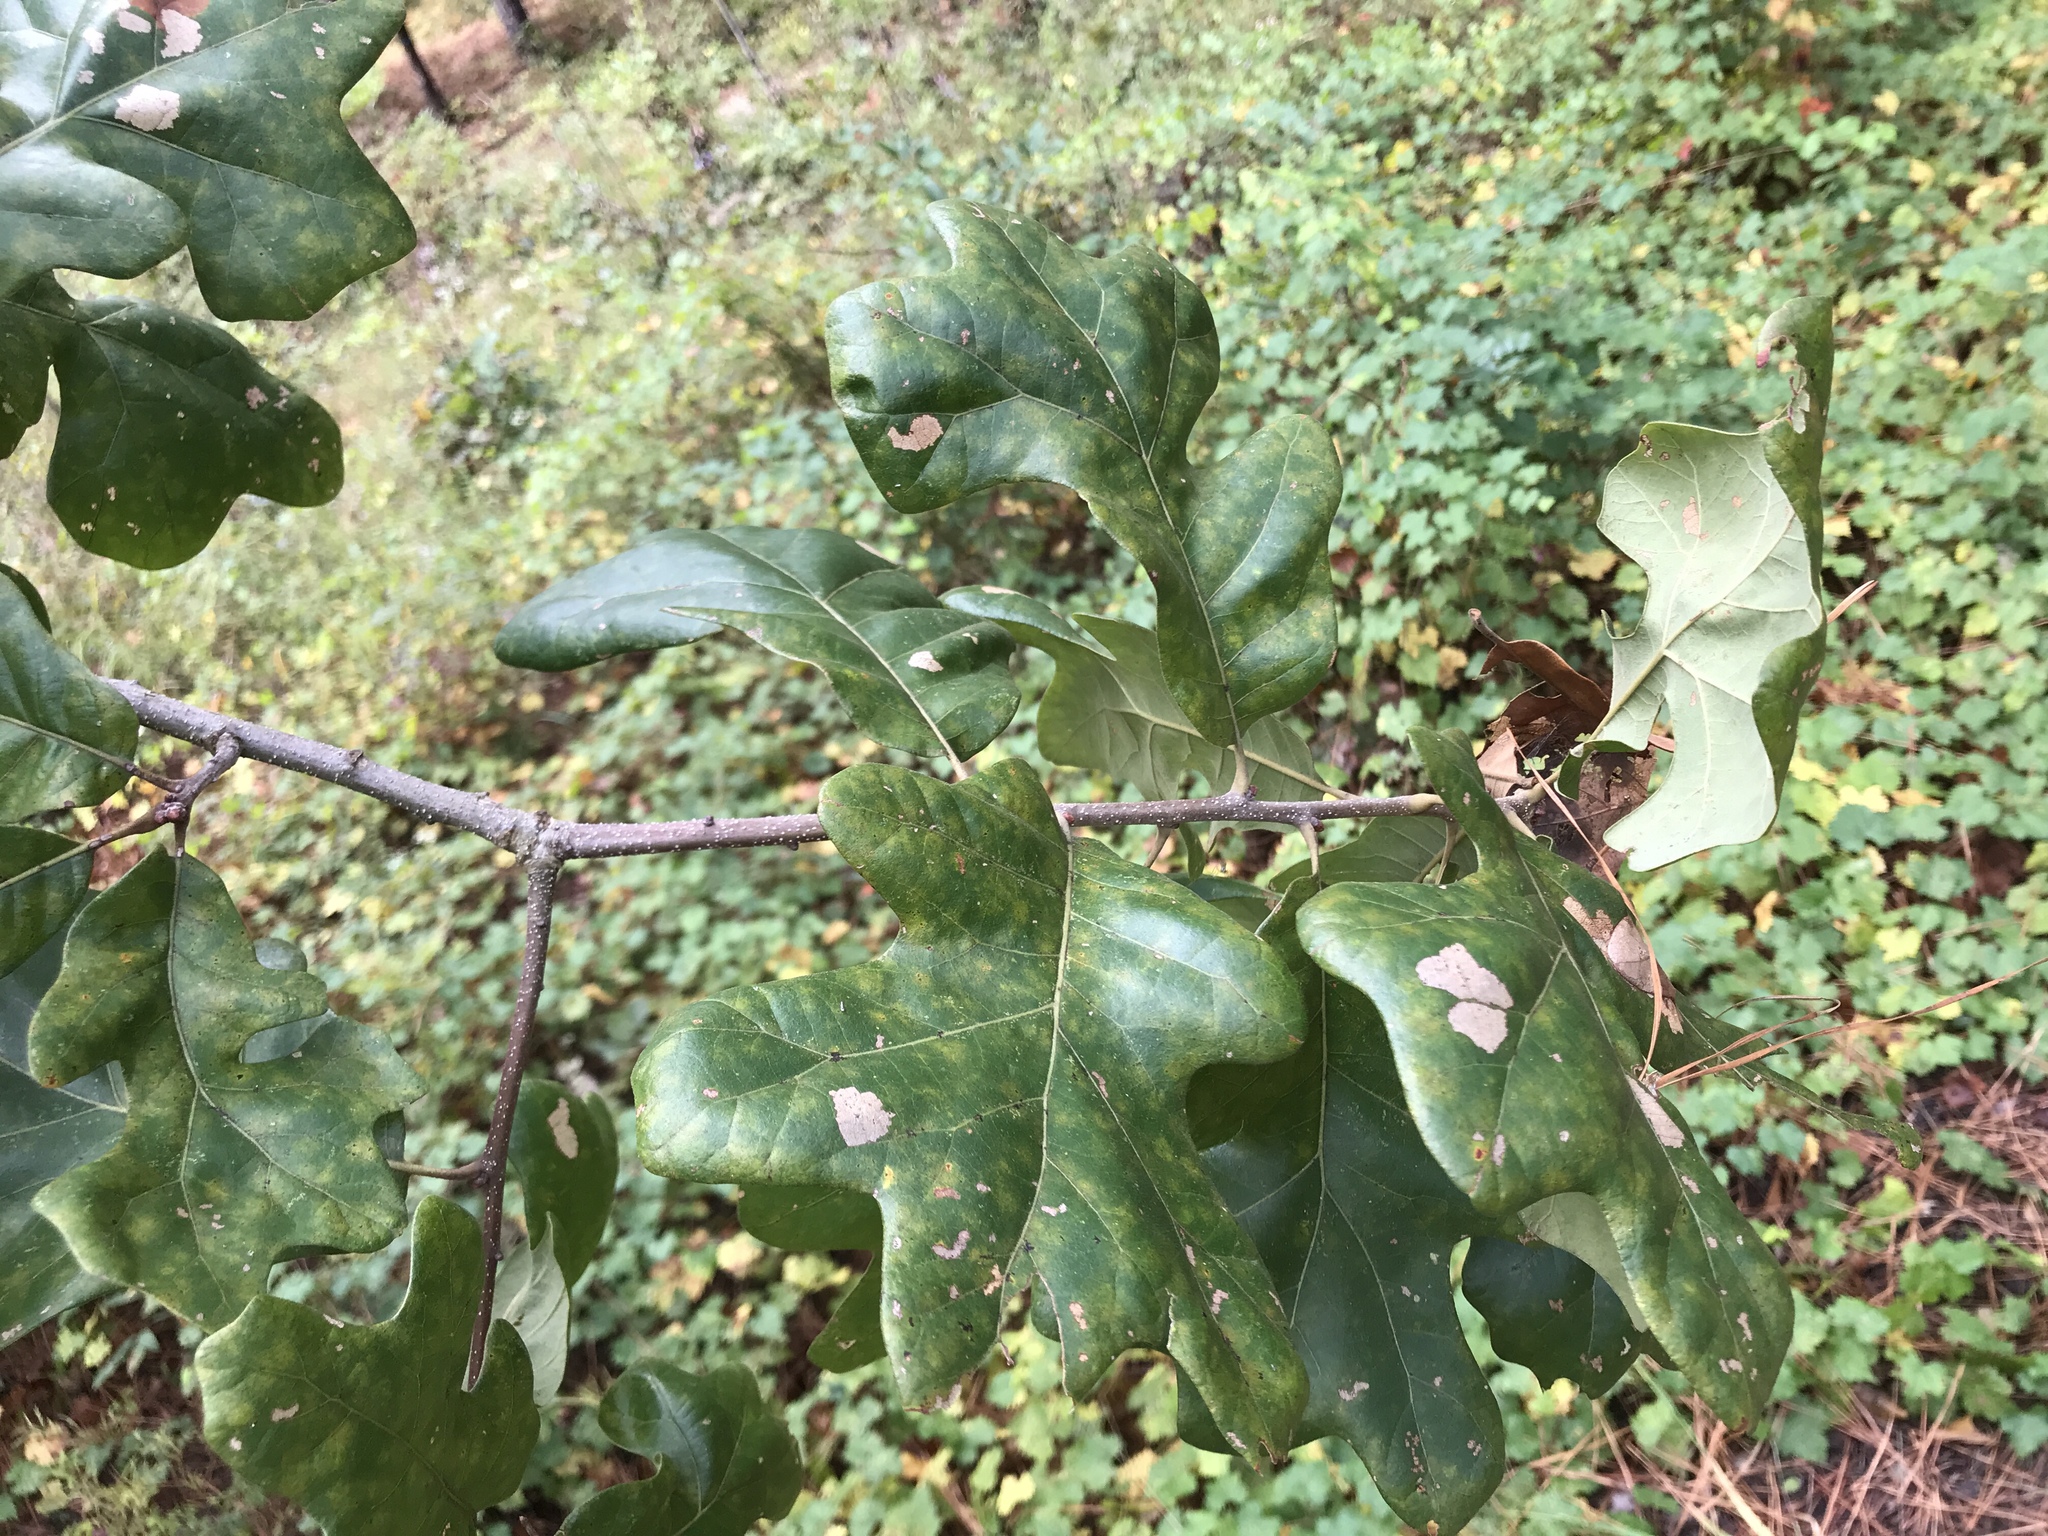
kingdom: Plantae
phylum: Tracheophyta
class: Magnoliopsida
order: Fagales
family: Fagaceae
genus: Quercus
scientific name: Quercus stellata
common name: Post oak
